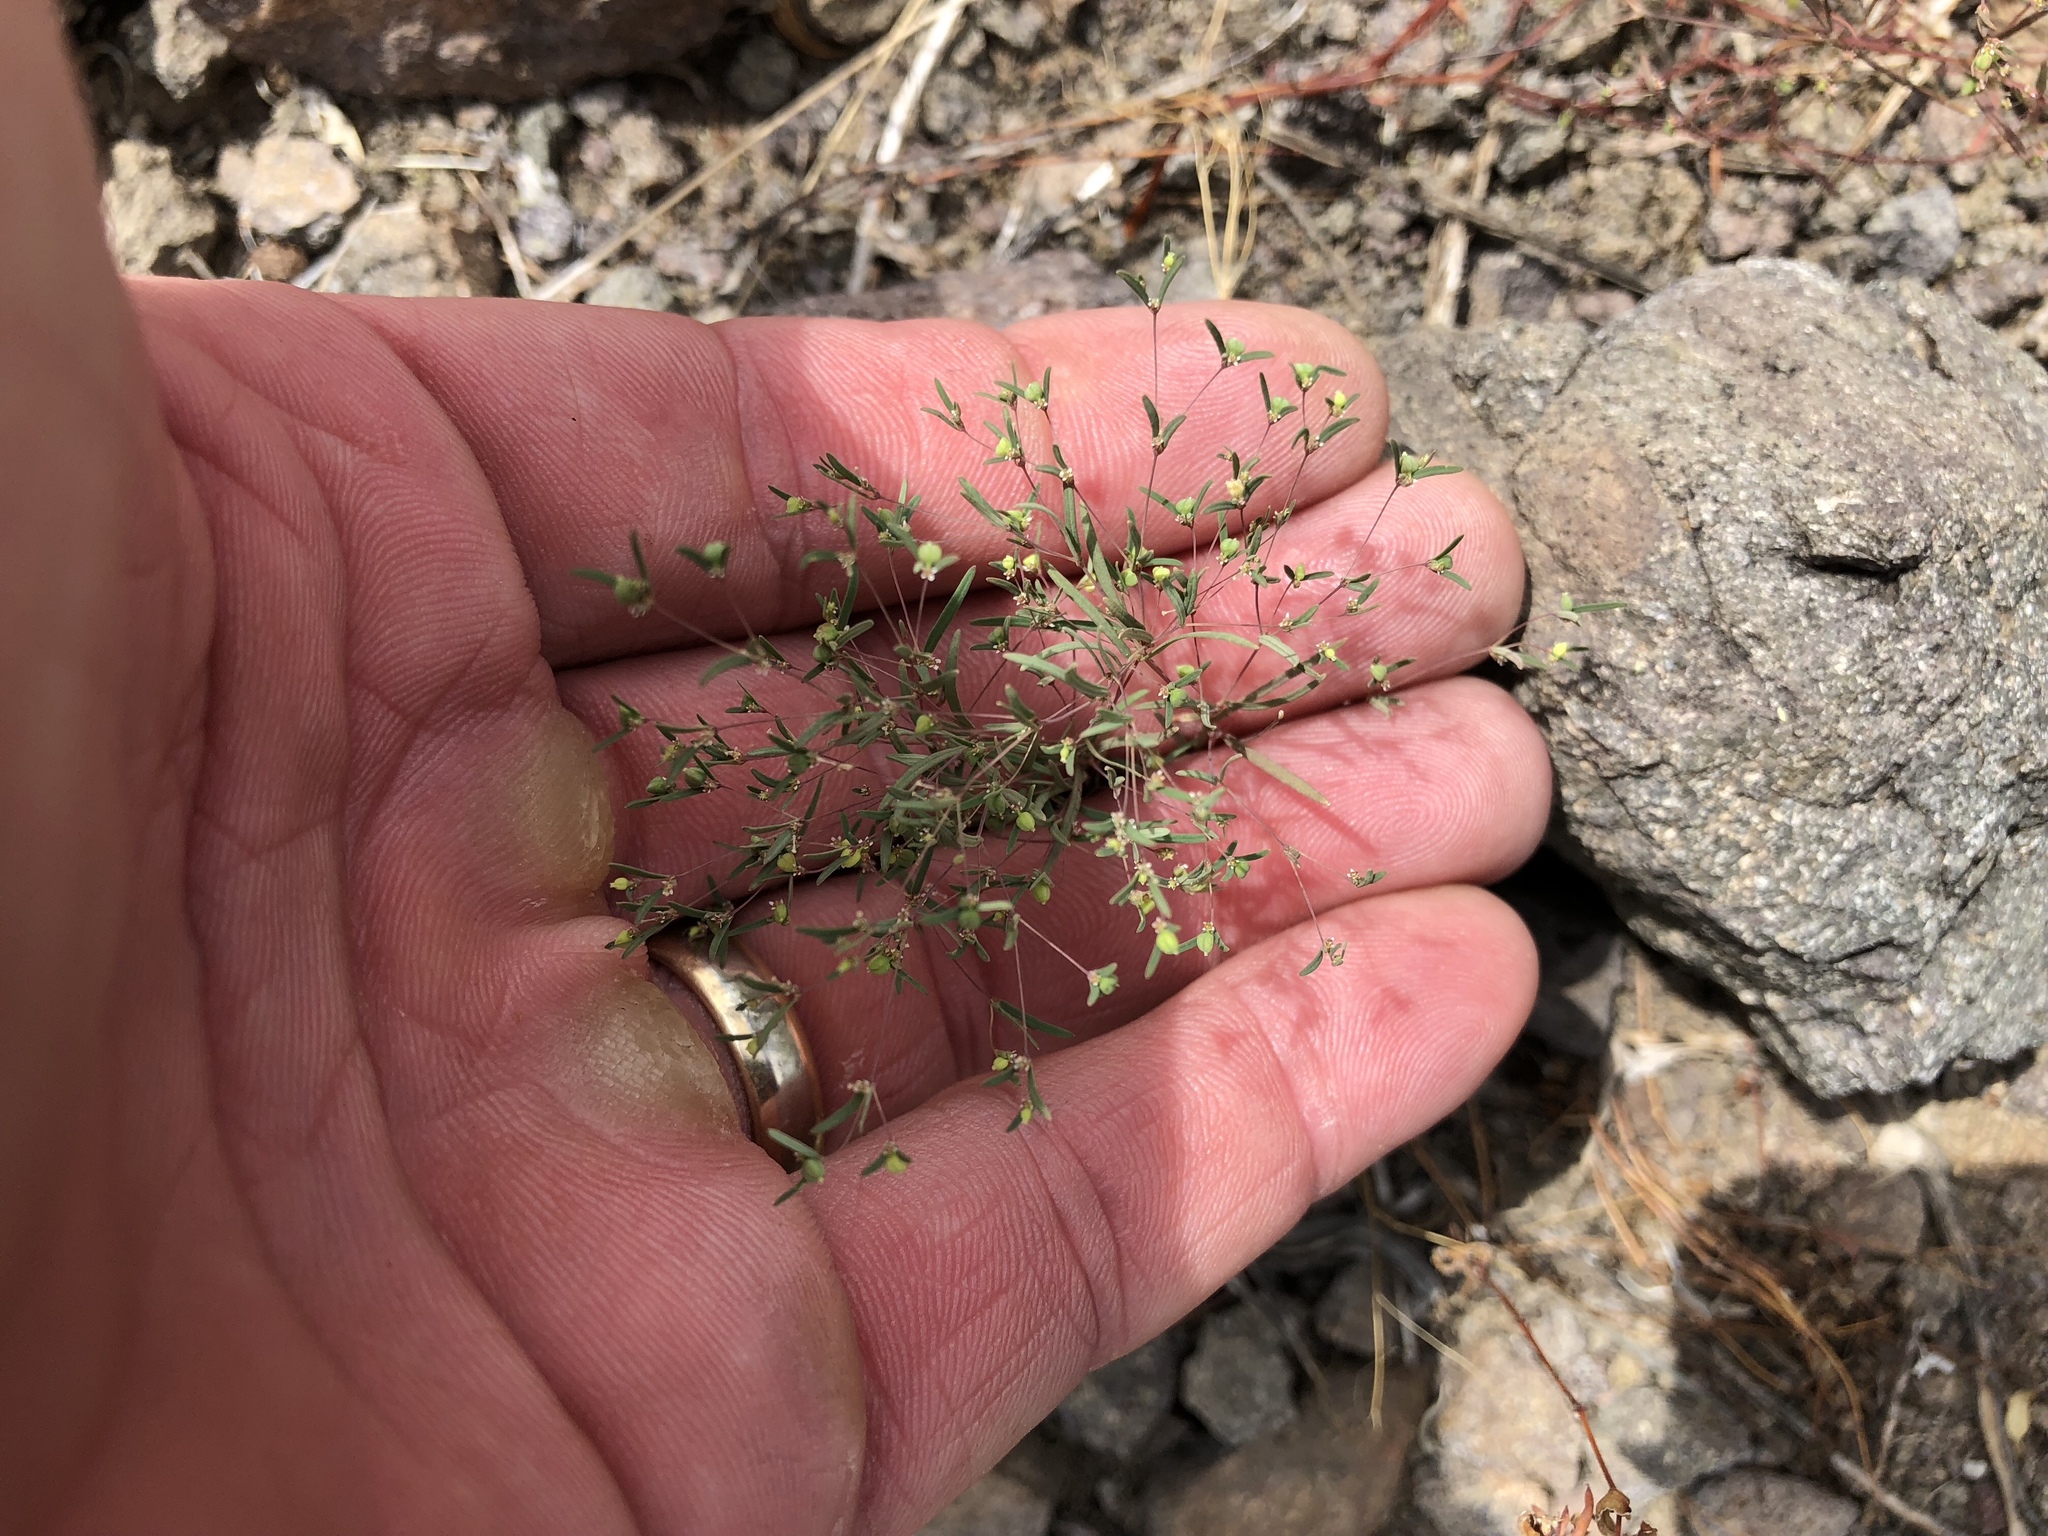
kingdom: Plantae
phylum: Tracheophyta
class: Magnoliopsida
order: Malpighiales
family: Euphorbiaceae
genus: Euphorbia
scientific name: Euphorbia gracillima
